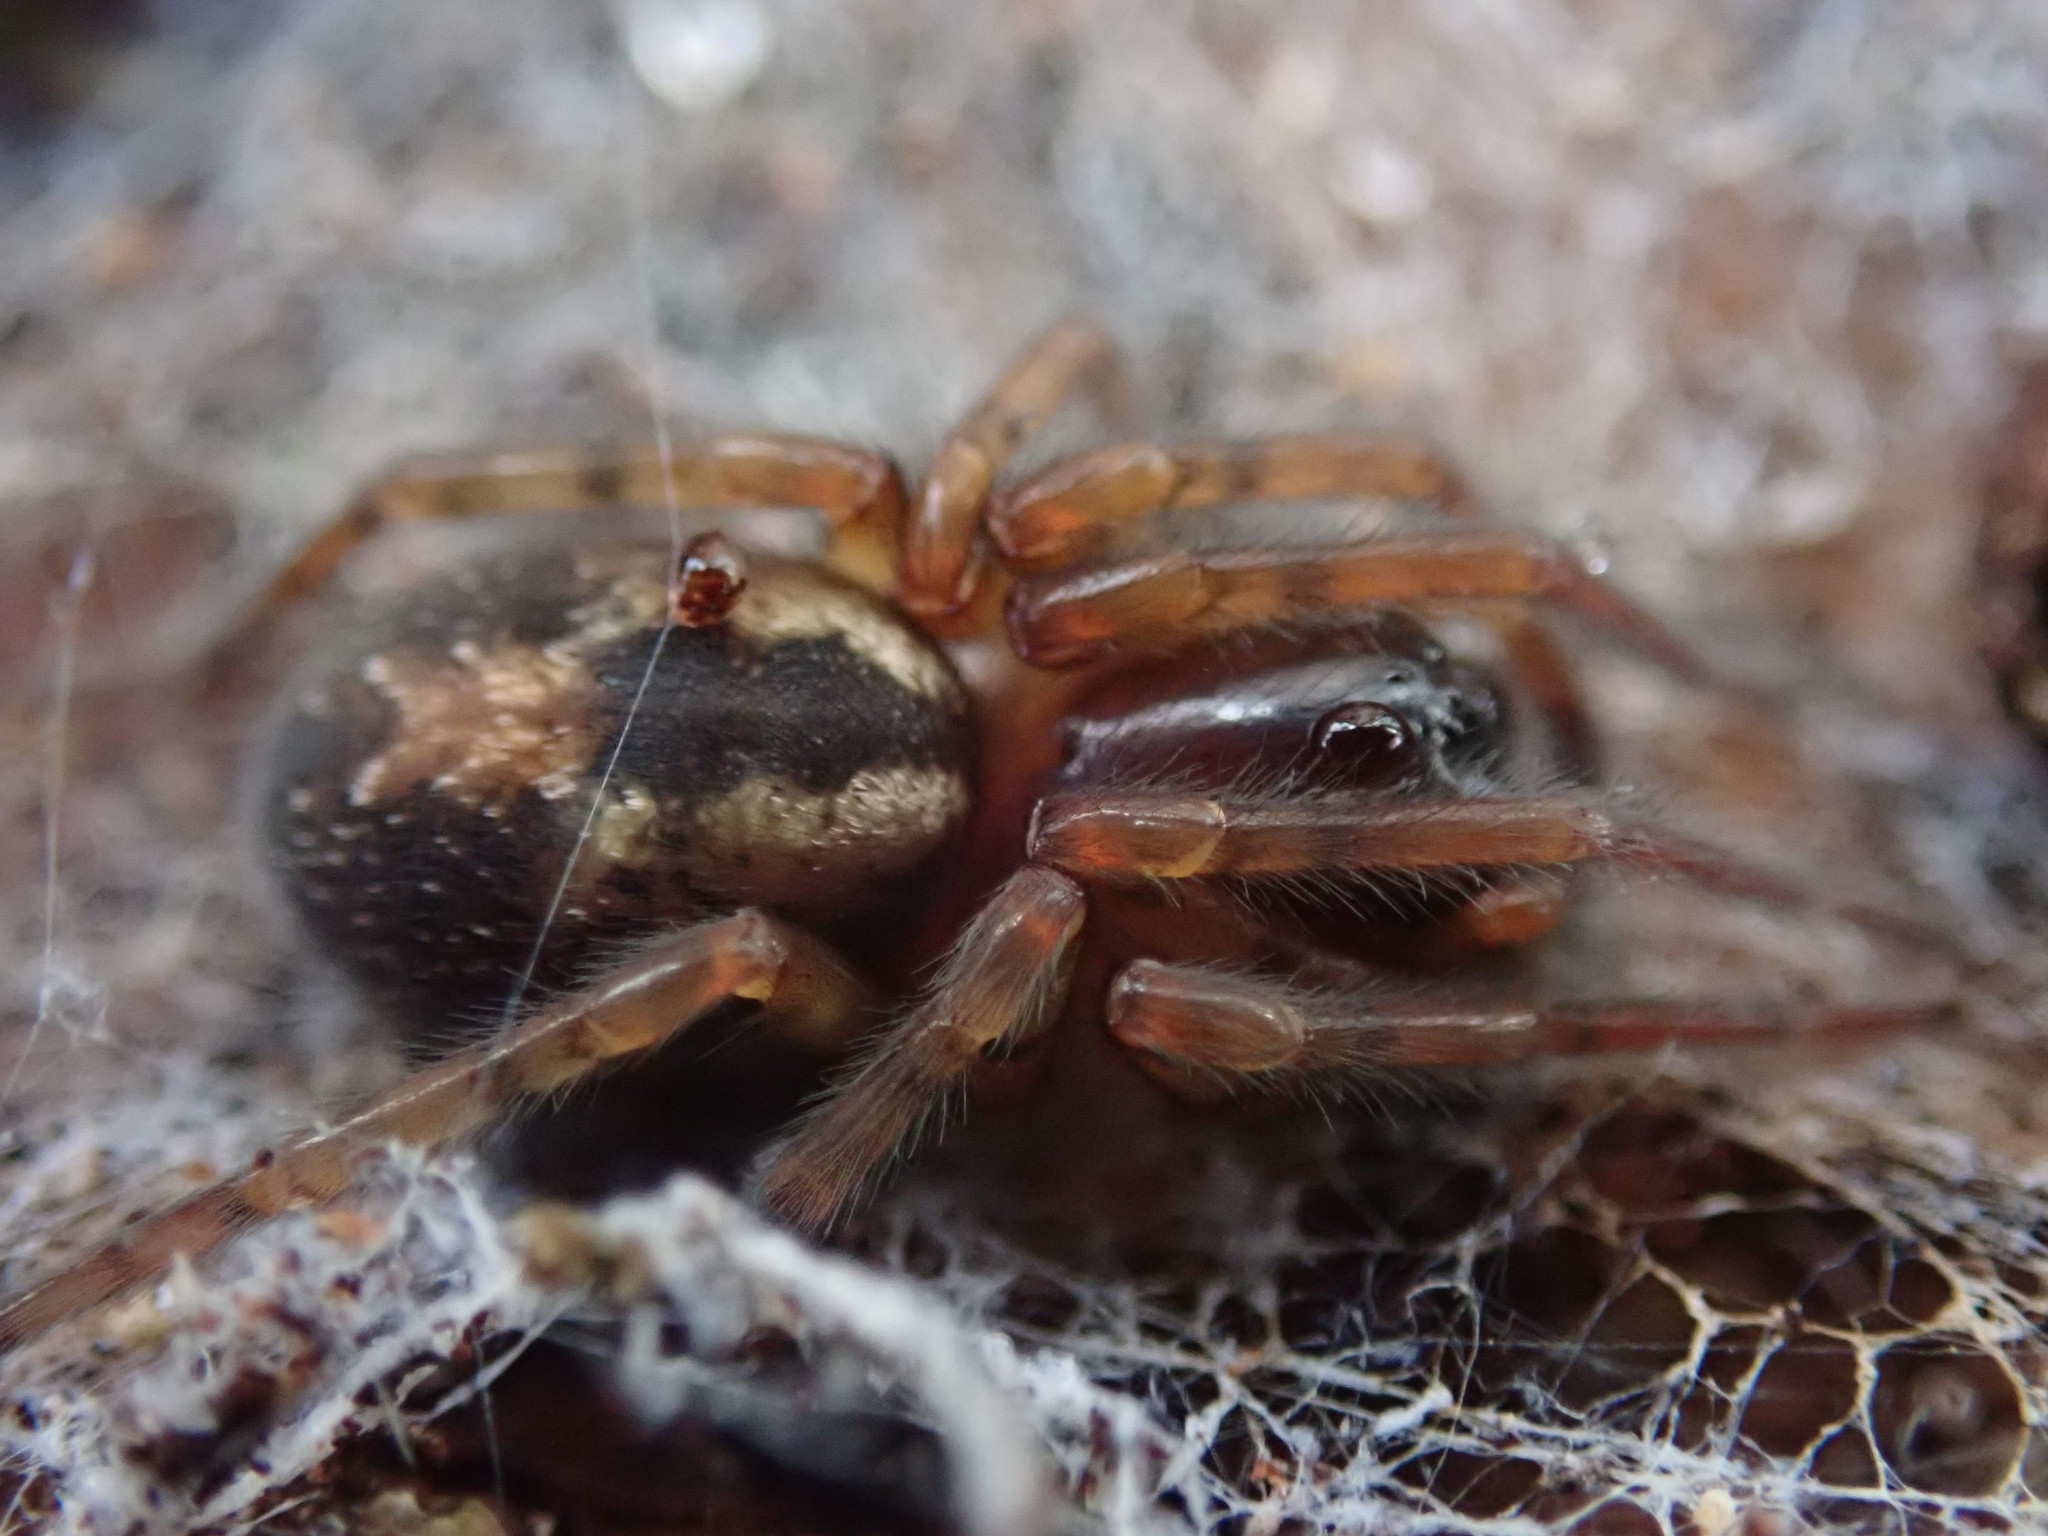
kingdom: Animalia
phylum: Arthropoda
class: Arachnida
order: Araneae
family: Amaurobiidae
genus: Amaurobius
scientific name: Amaurobius fenestralis
